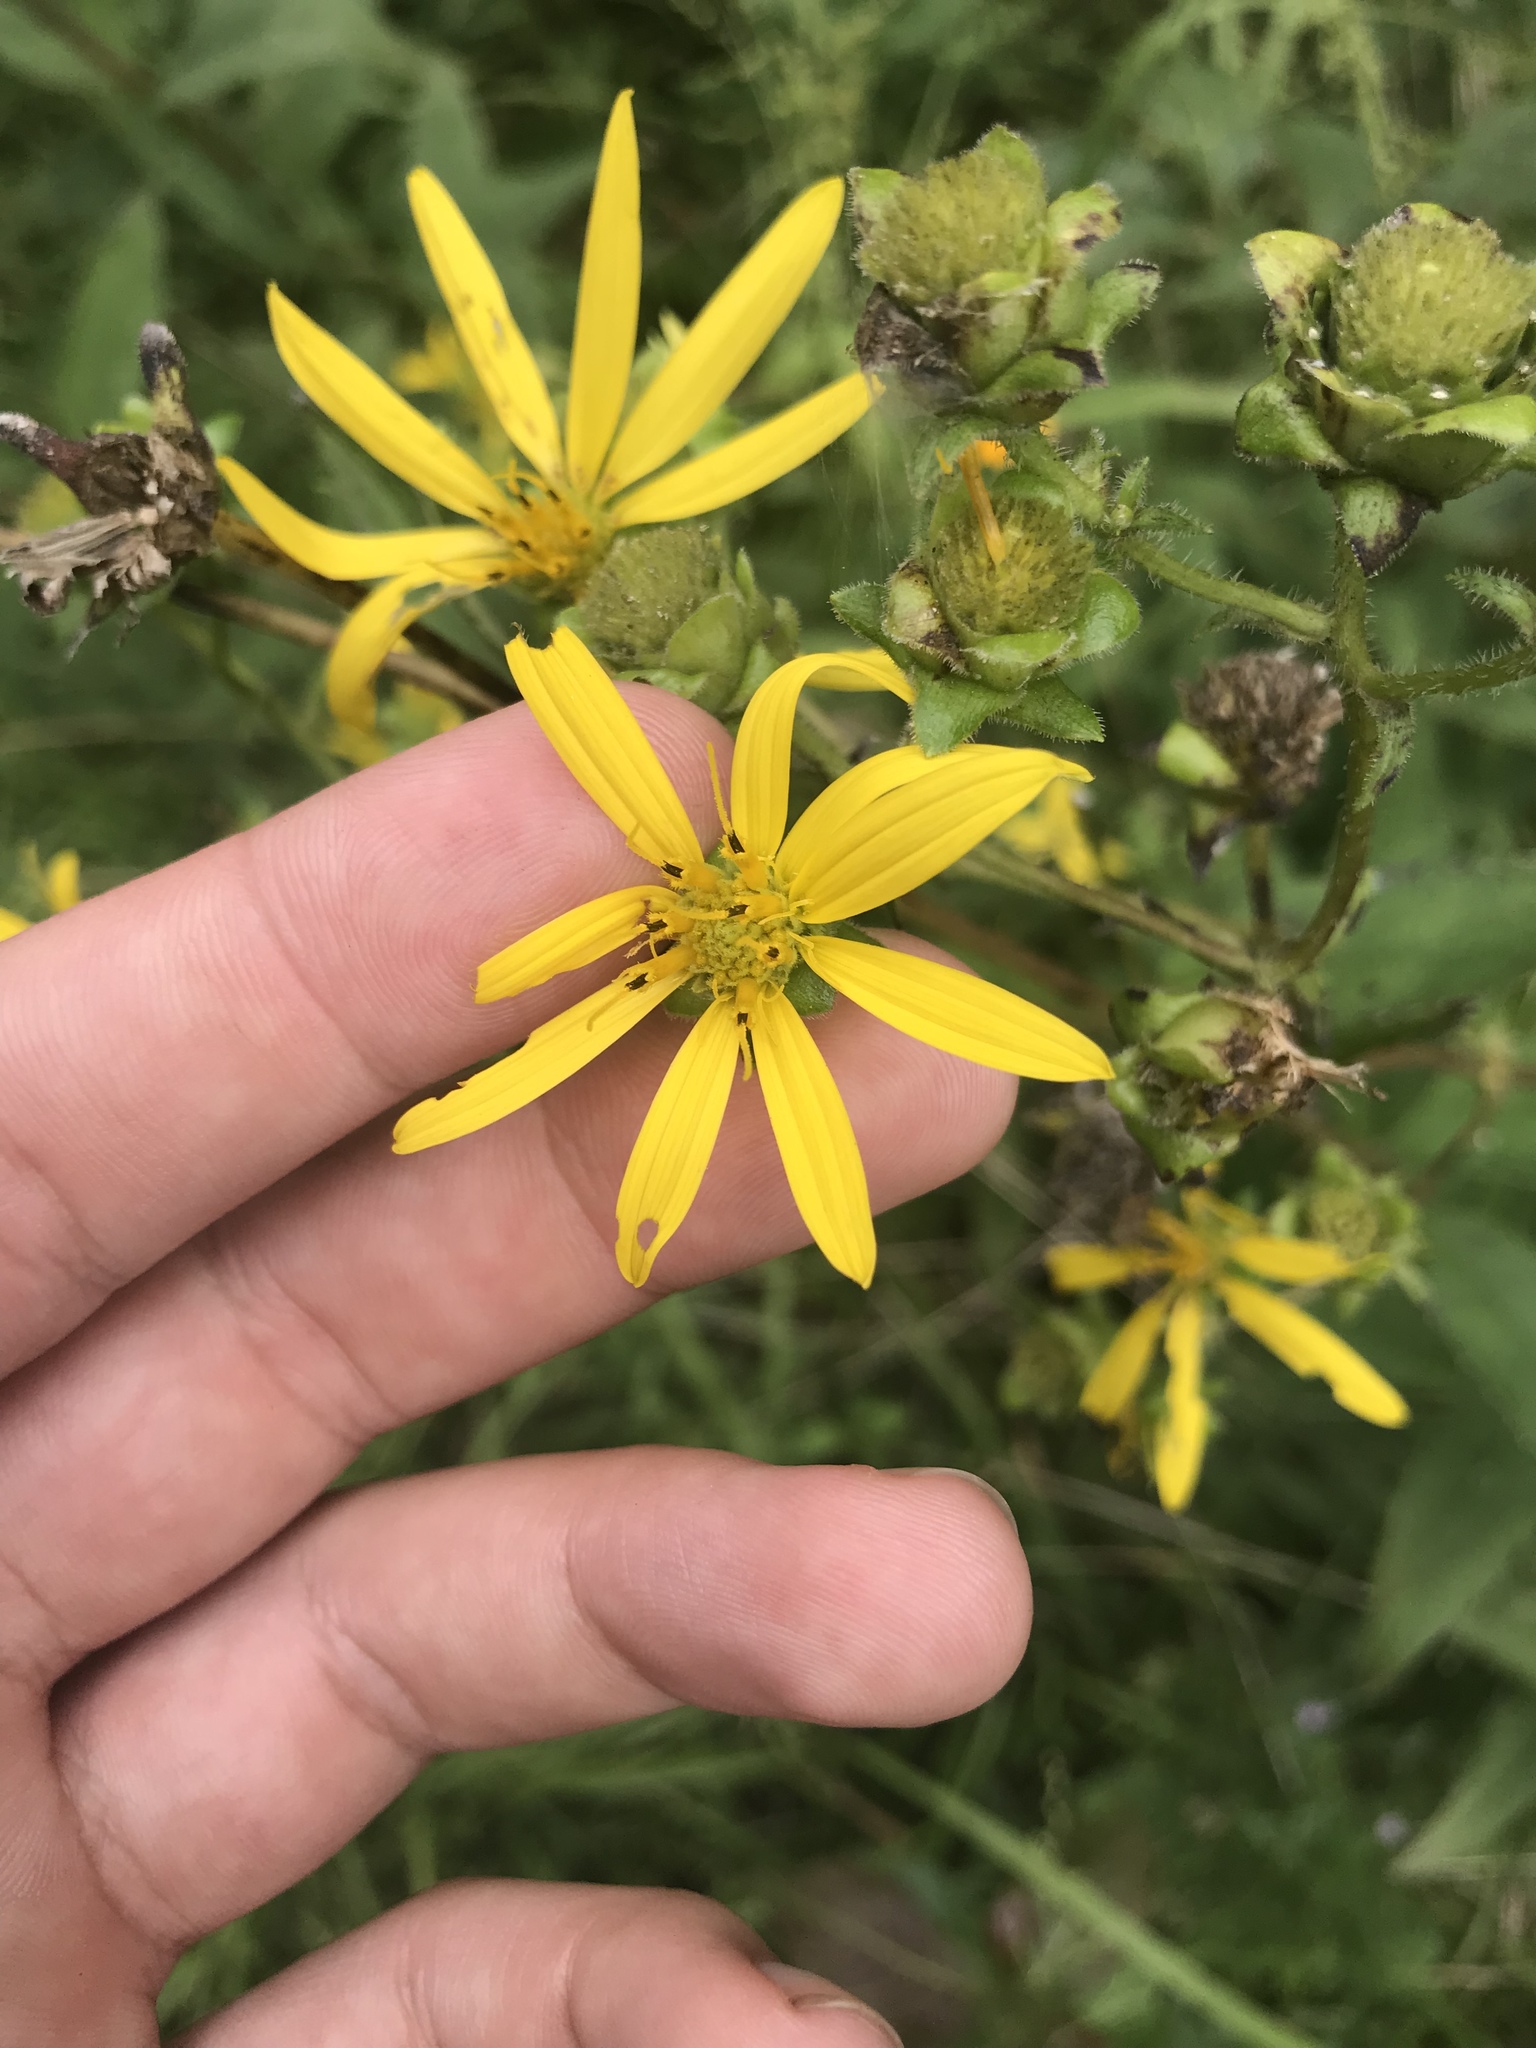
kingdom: Plantae
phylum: Tracheophyta
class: Magnoliopsida
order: Asterales
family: Asteraceae
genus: Silphium
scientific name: Silphium asteriscus
